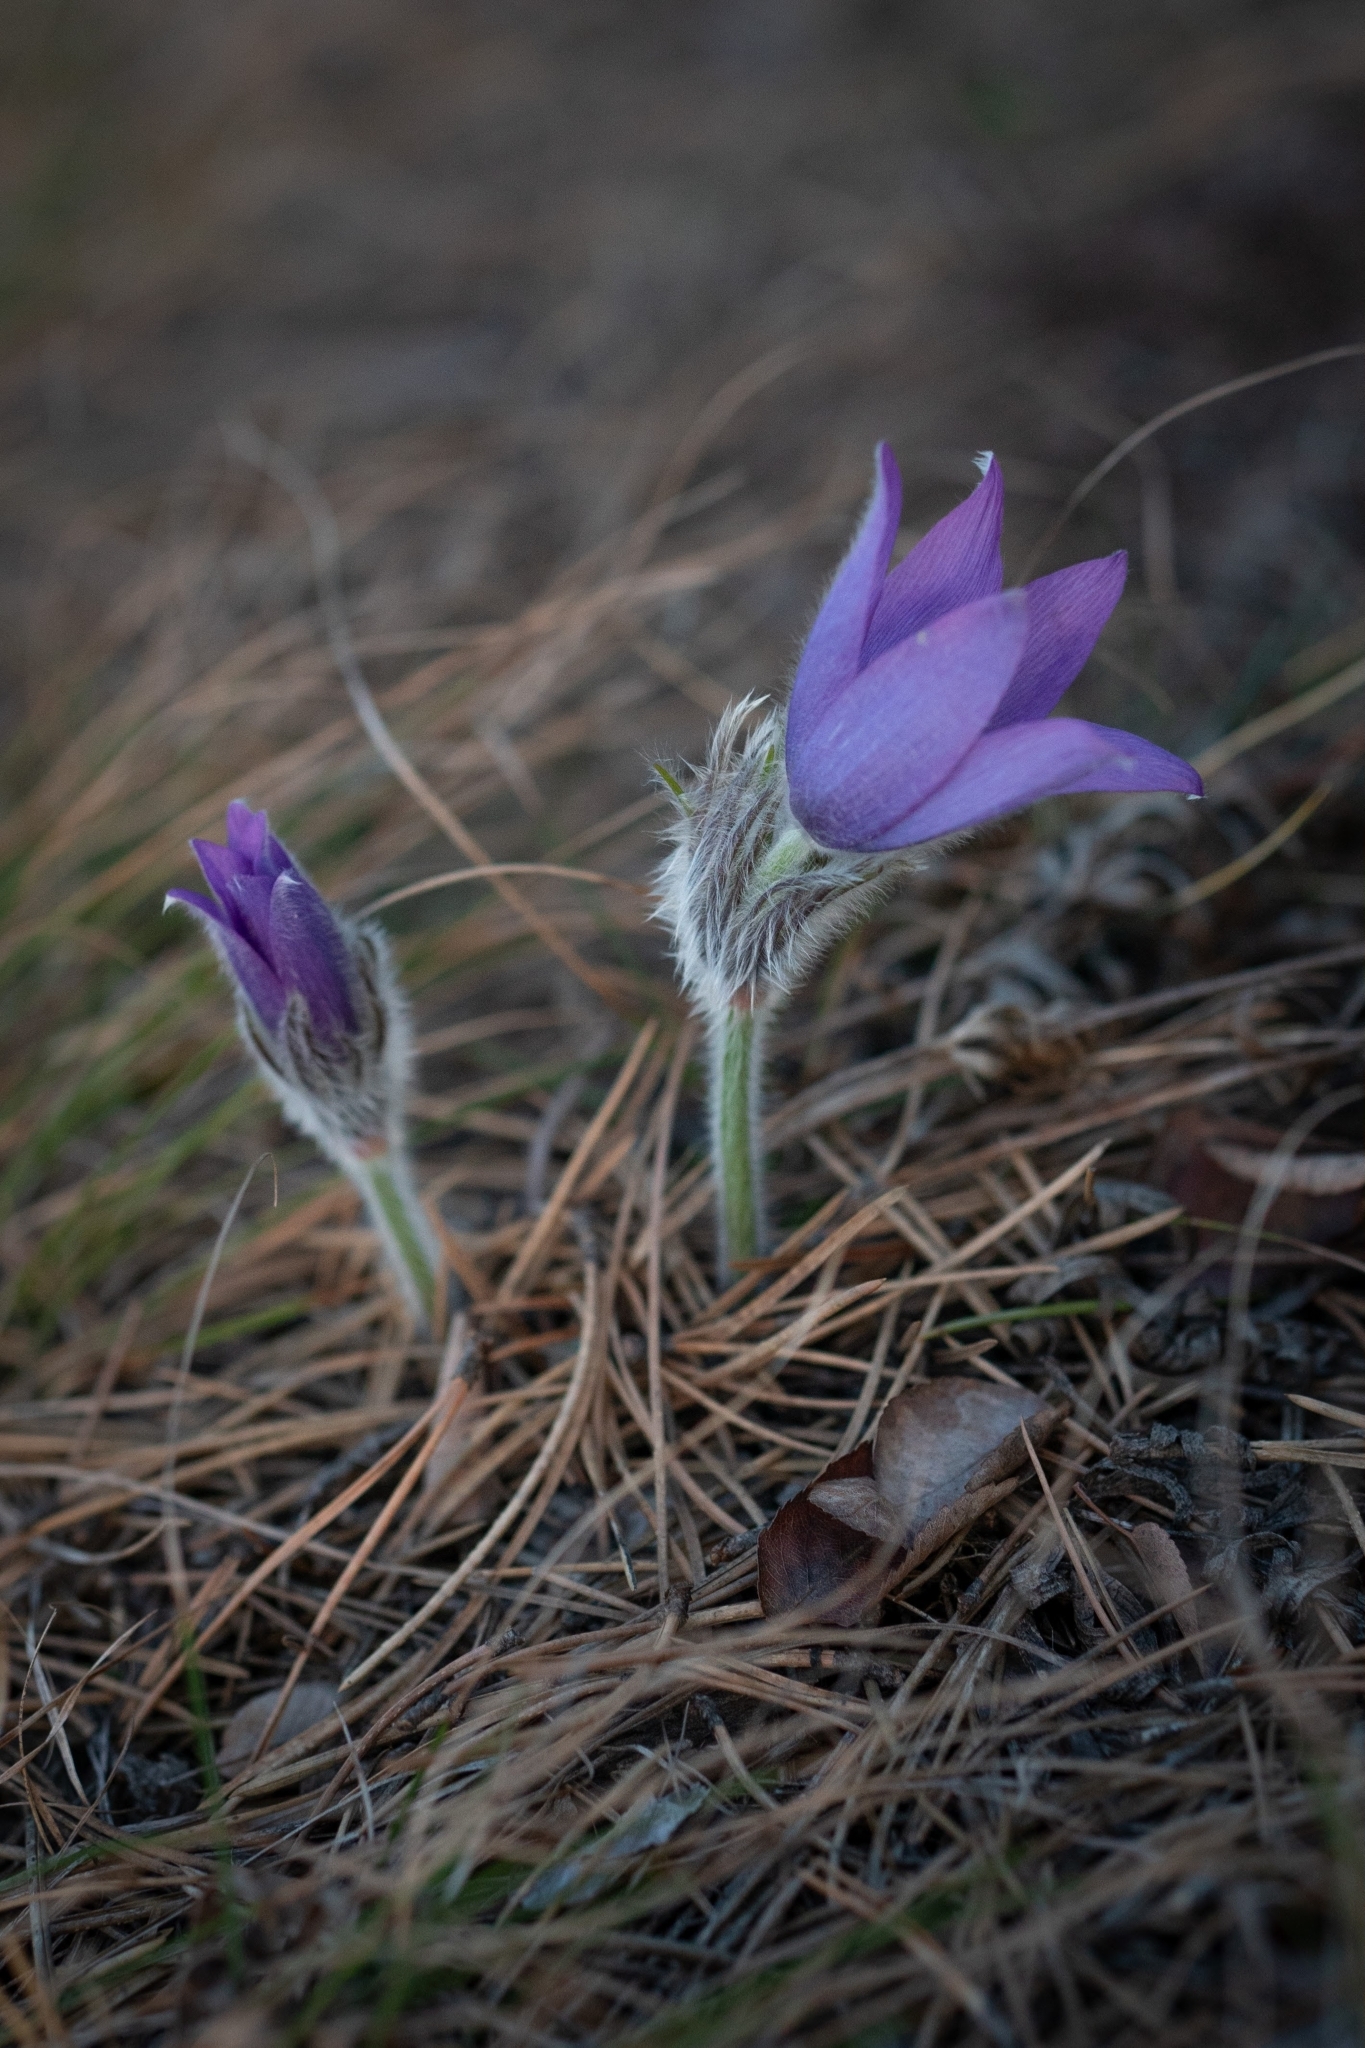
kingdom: Plantae
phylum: Tracheophyta
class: Magnoliopsida
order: Ranunculales
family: Ranunculaceae
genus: Pulsatilla
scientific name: Pulsatilla grandis
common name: Greater pasque flower
